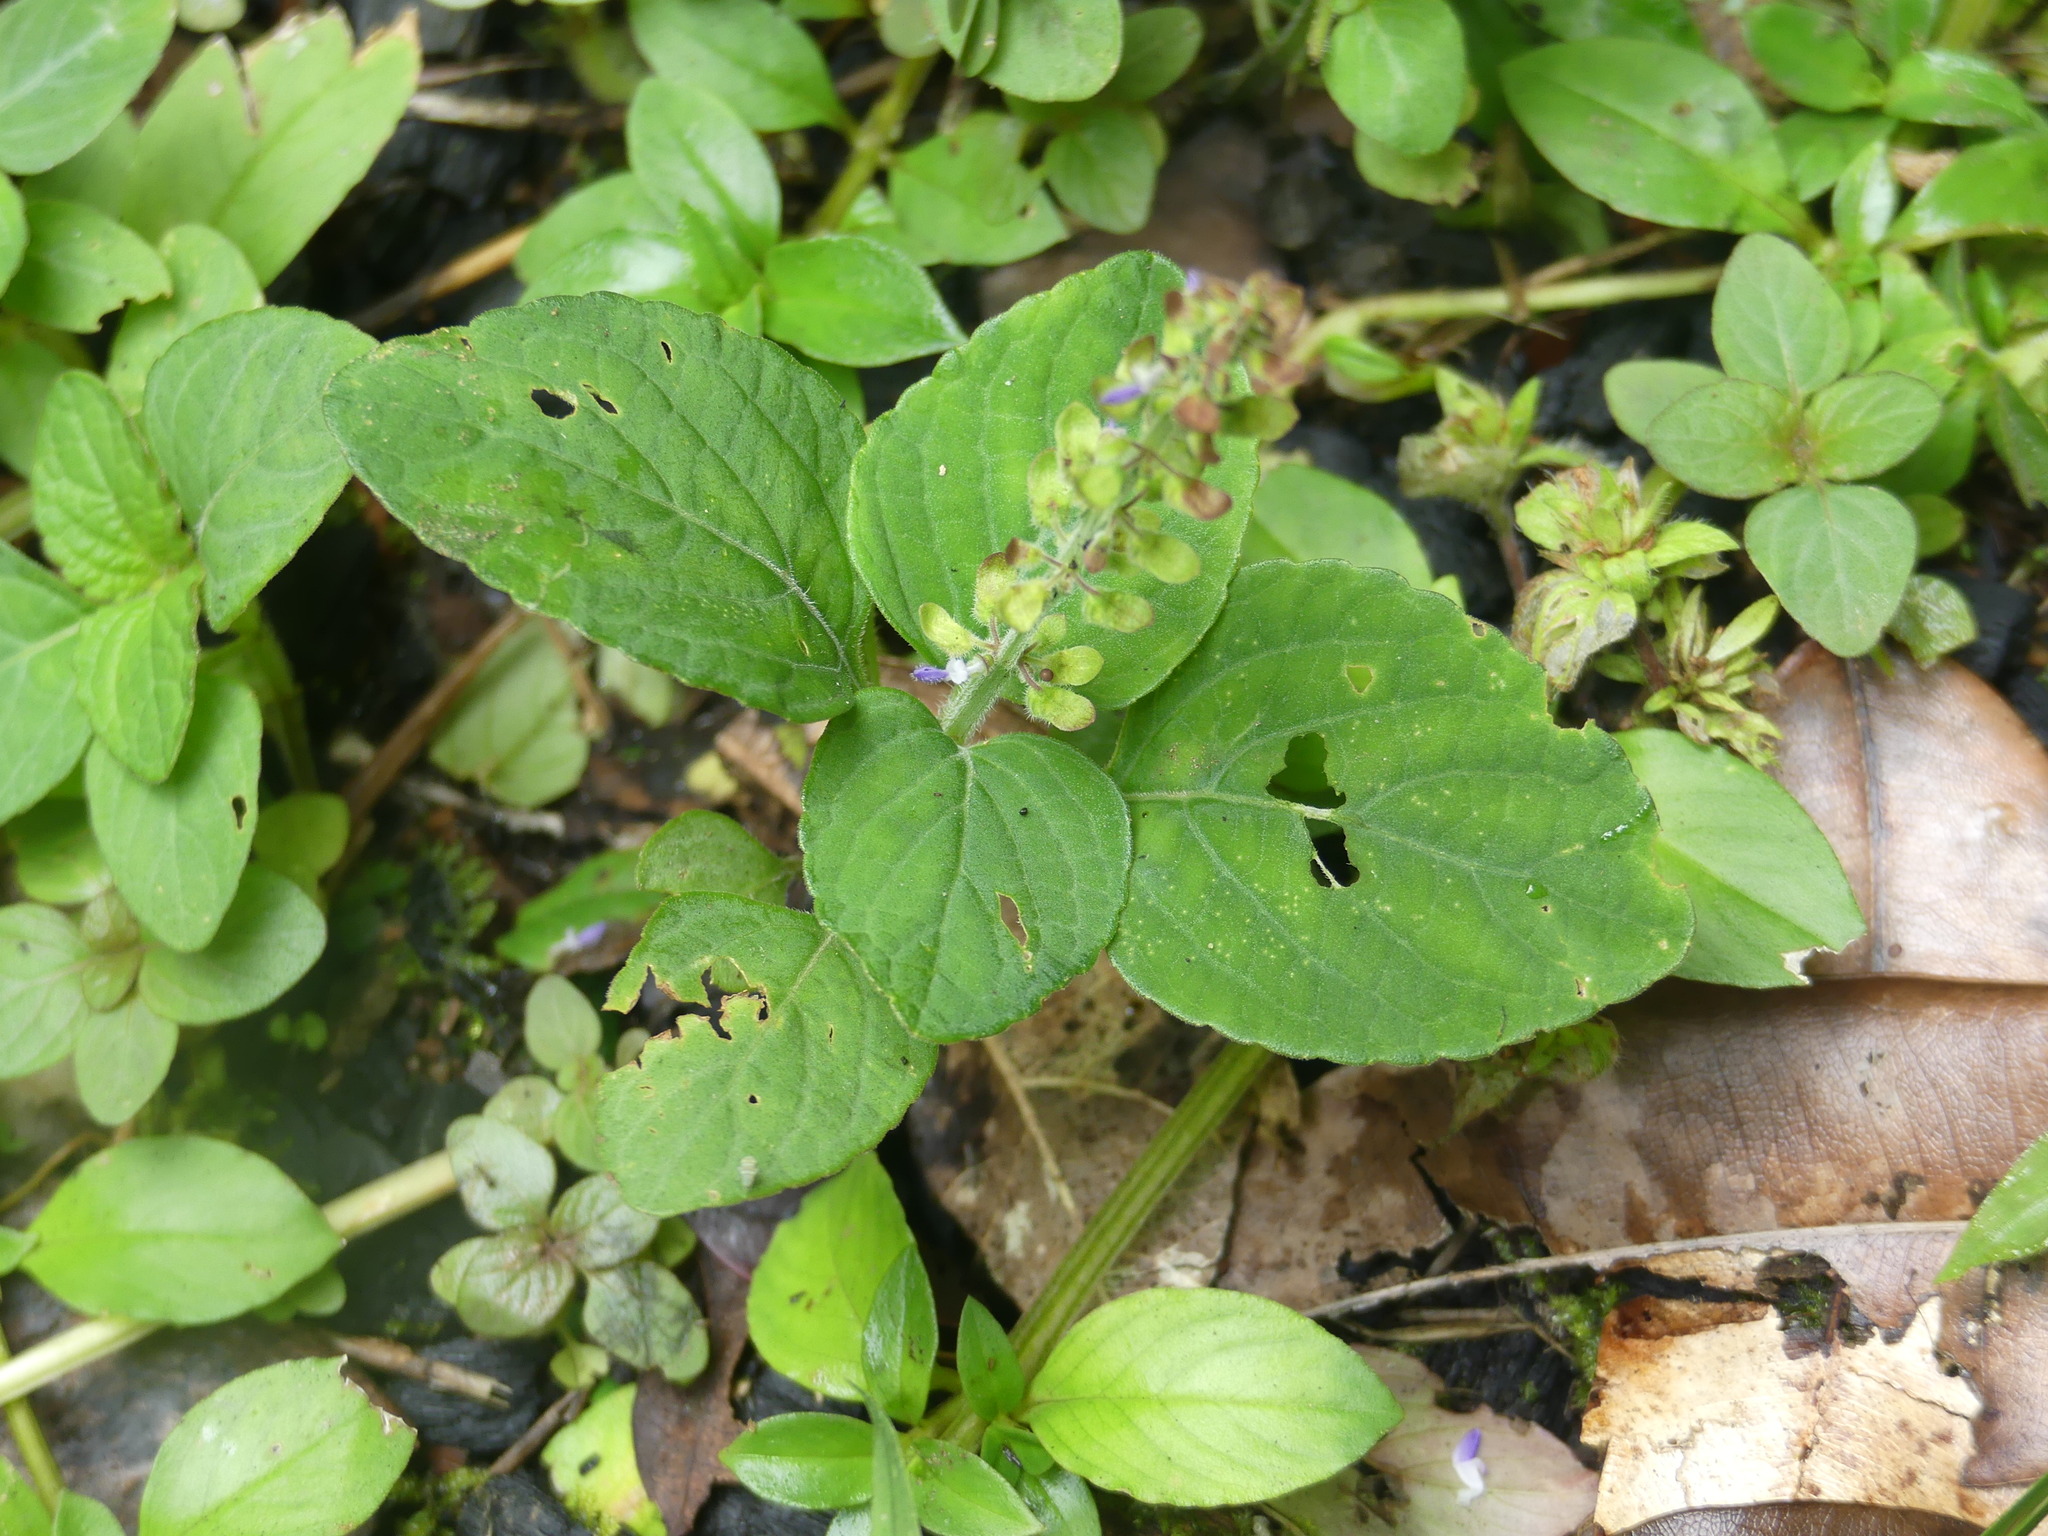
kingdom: Plantae
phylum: Tracheophyta
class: Magnoliopsida
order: Lamiales
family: Lamiaceae
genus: Coleus
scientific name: Coleus monostachyus
